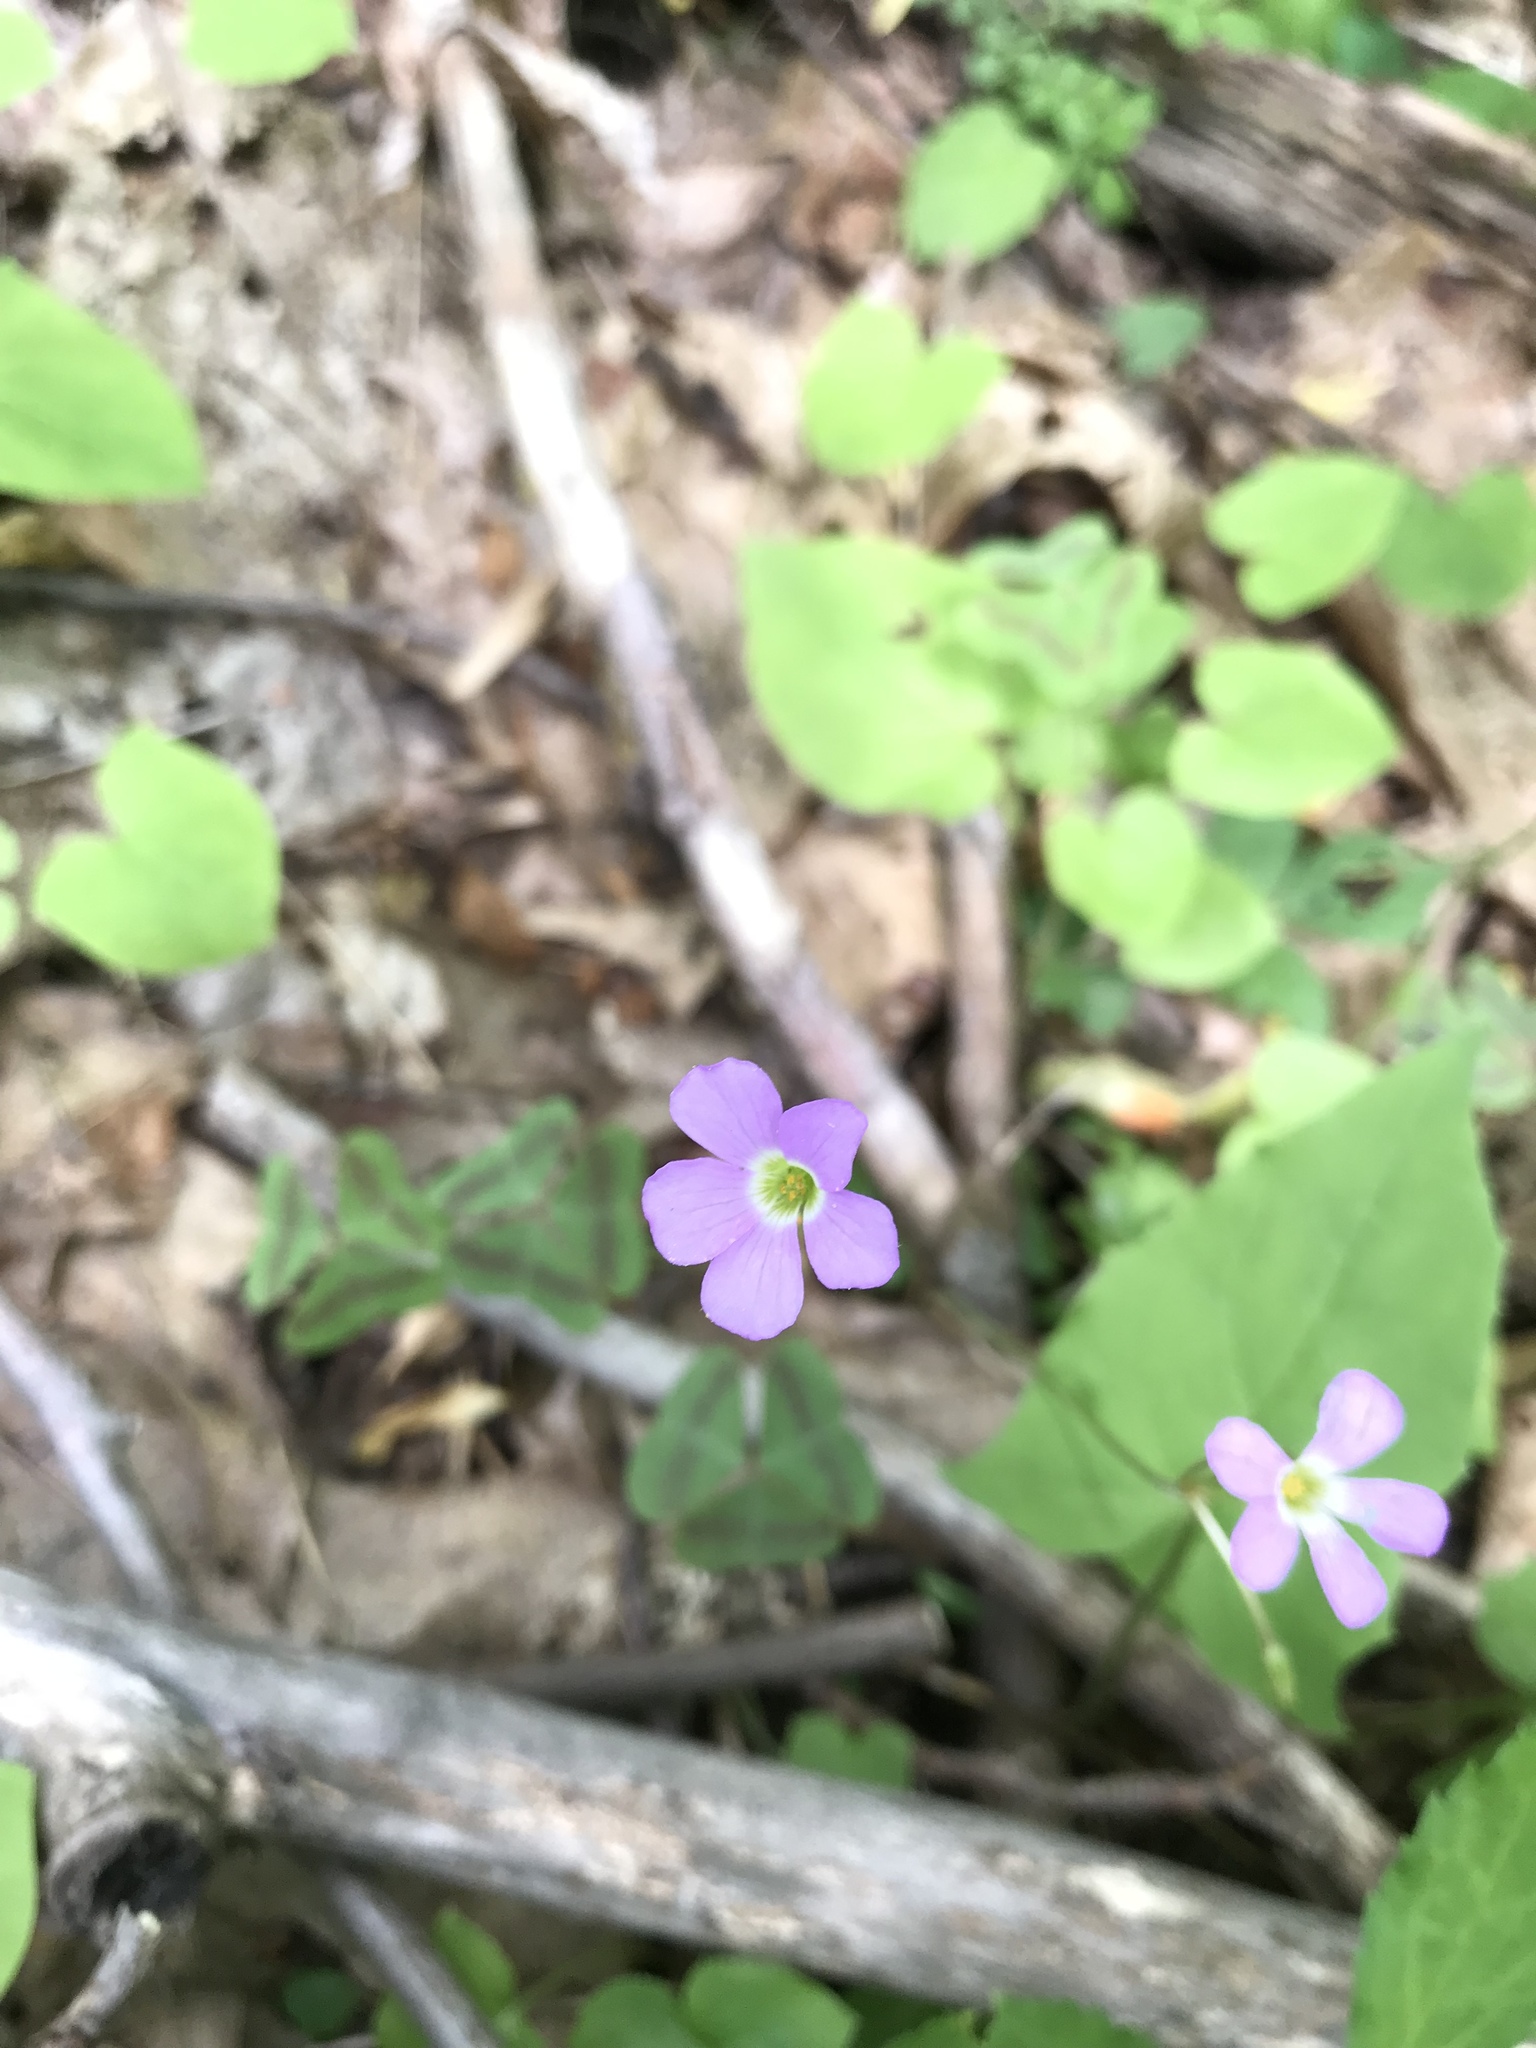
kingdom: Plantae
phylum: Tracheophyta
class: Magnoliopsida
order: Oxalidales
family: Oxalidaceae
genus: Oxalis
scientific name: Oxalis violacea
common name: Violet wood-sorrel
